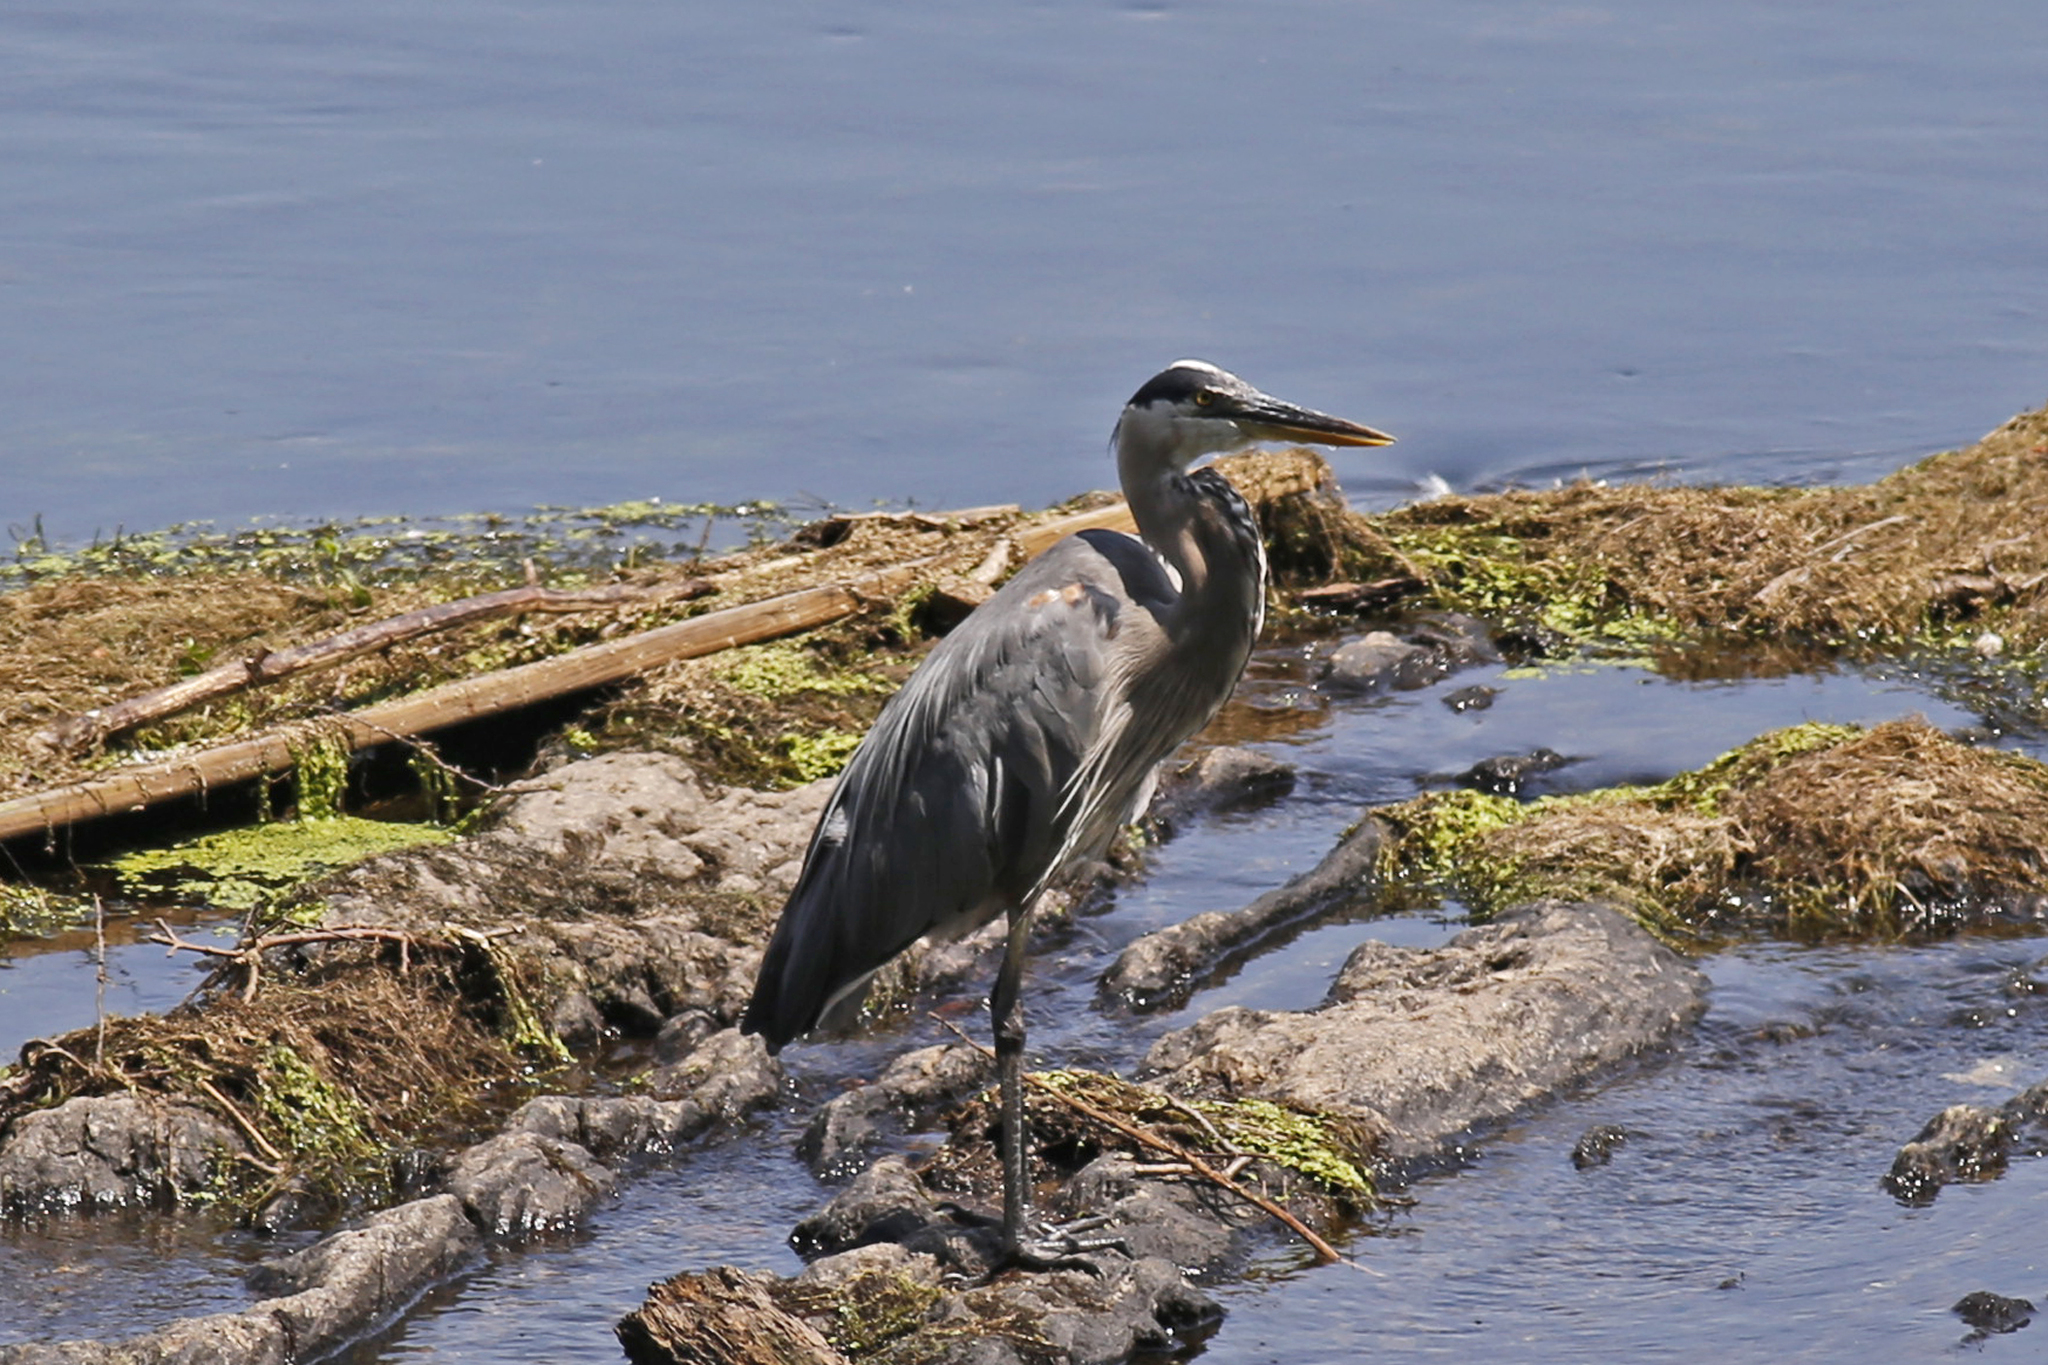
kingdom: Animalia
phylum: Chordata
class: Aves
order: Pelecaniformes
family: Ardeidae
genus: Ardea
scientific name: Ardea herodias
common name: Great blue heron
